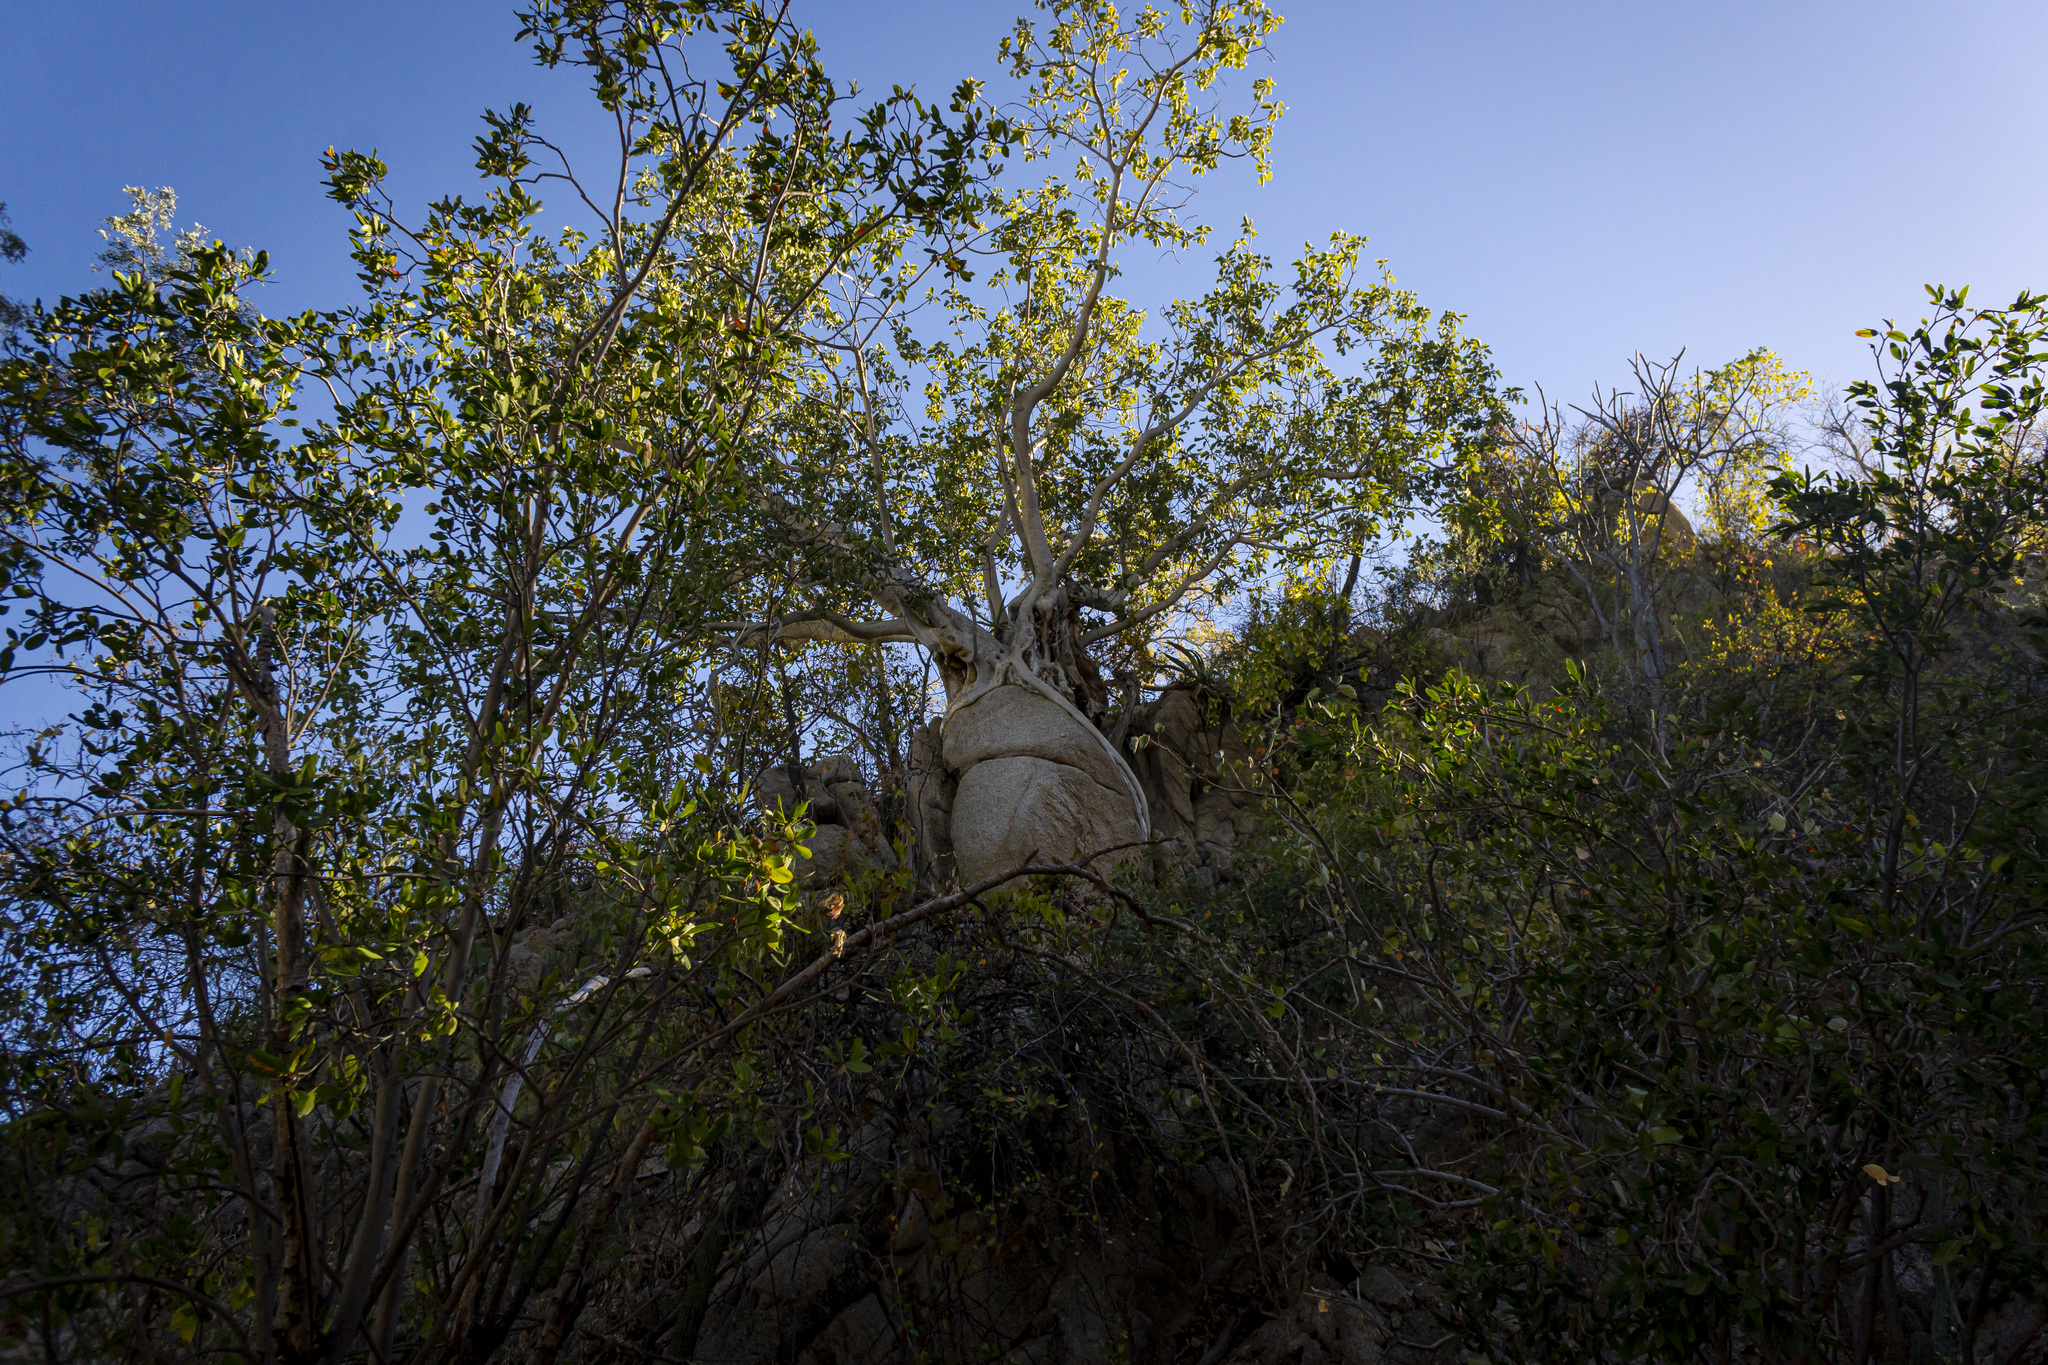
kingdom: Plantae
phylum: Tracheophyta
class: Magnoliopsida
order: Rosales
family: Moraceae
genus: Ficus
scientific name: Ficus petiolaris
